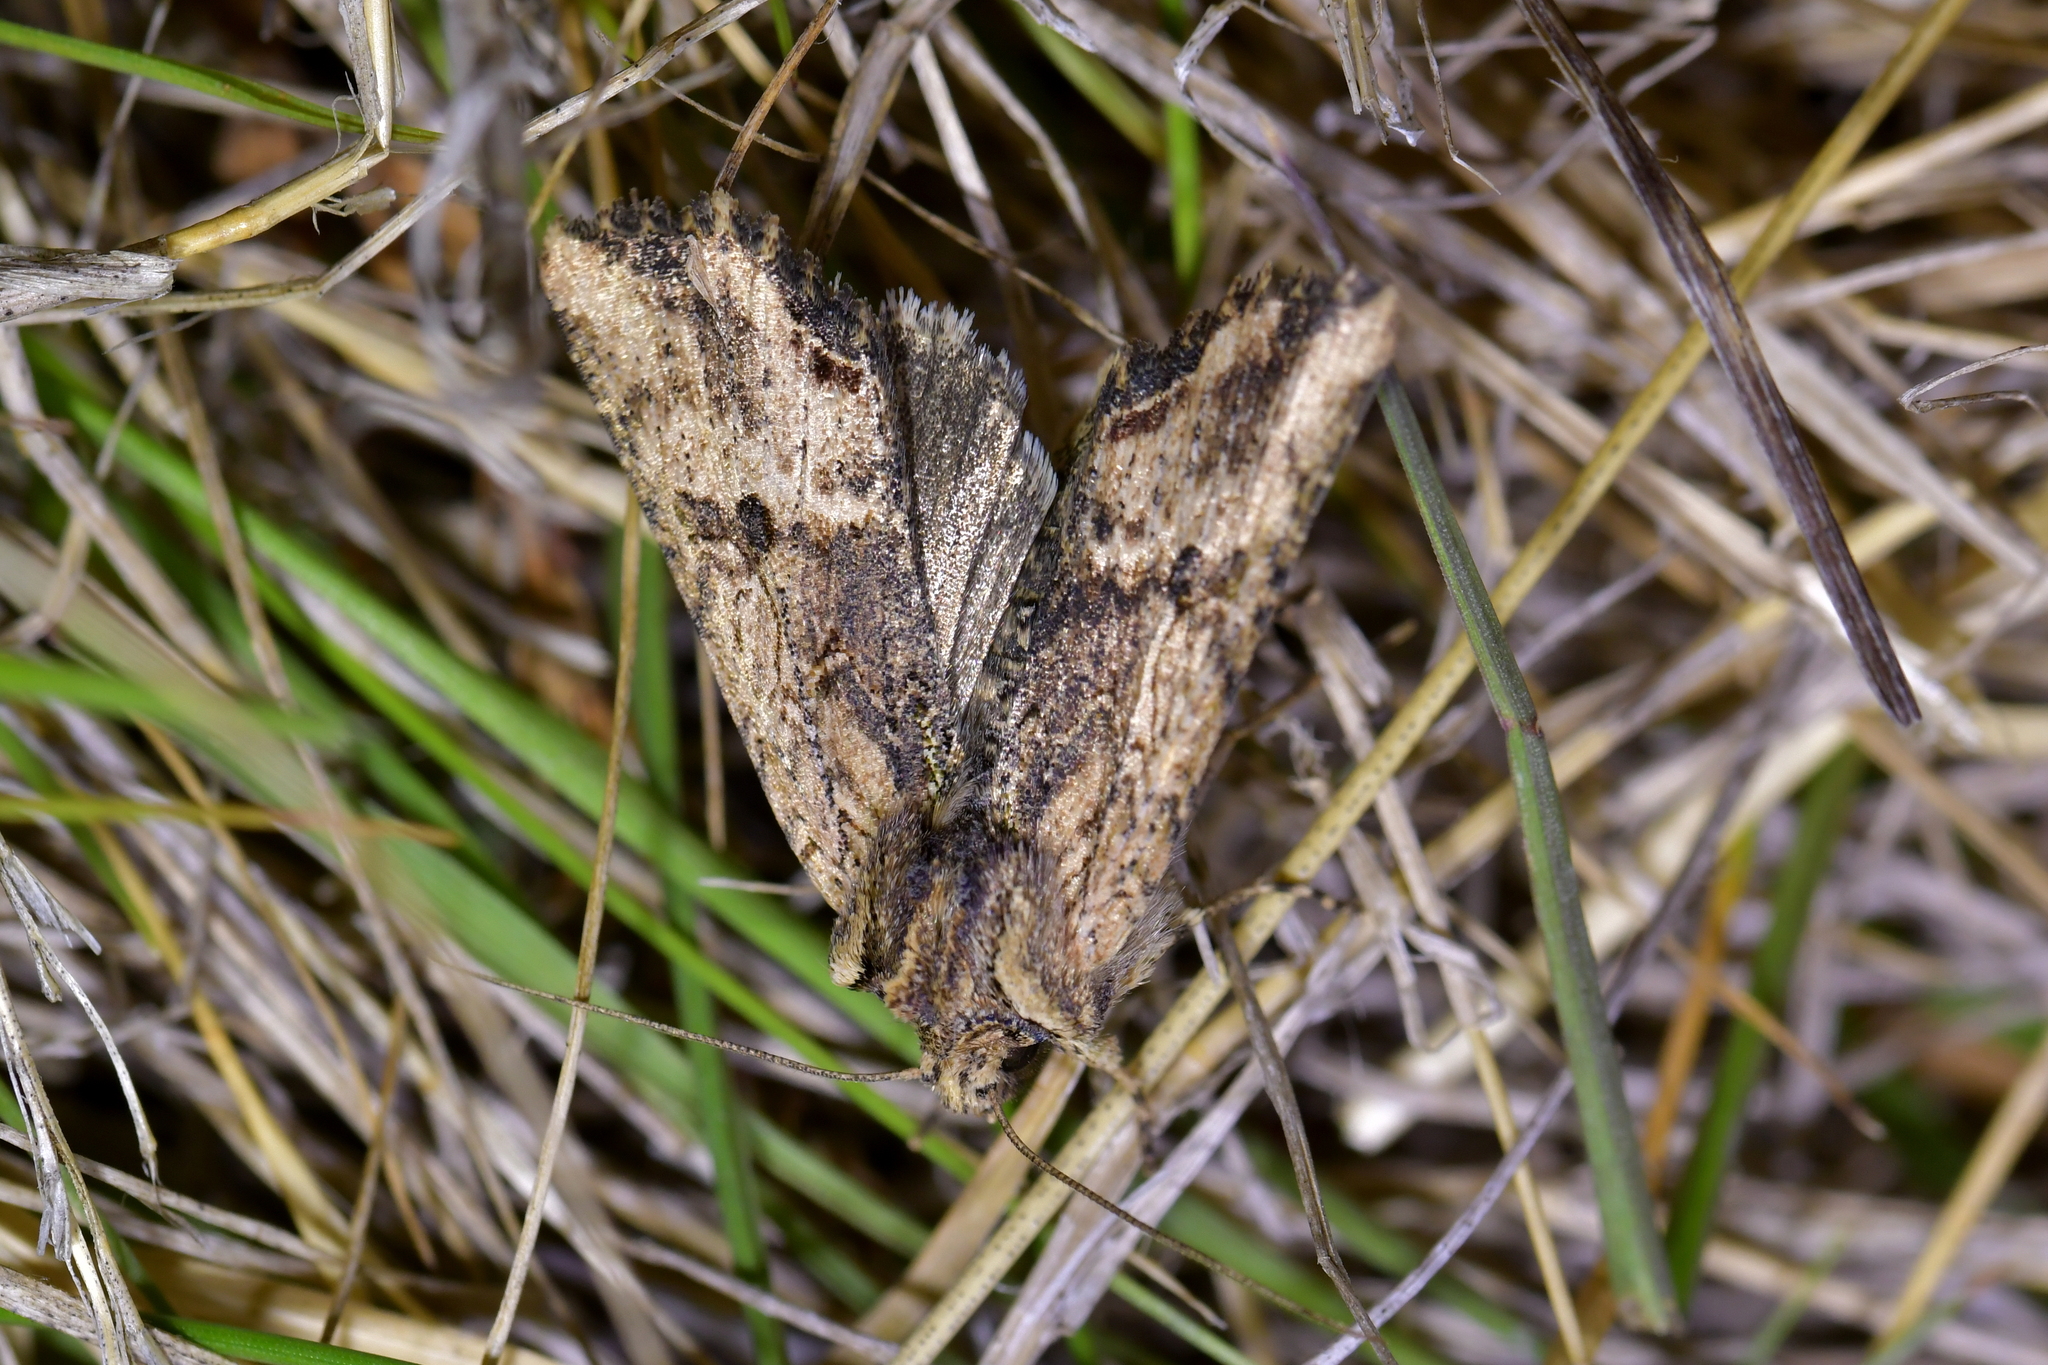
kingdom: Animalia
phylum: Arthropoda
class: Insecta
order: Lepidoptera
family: Noctuidae
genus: Meterana
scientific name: Meterana coeleno
